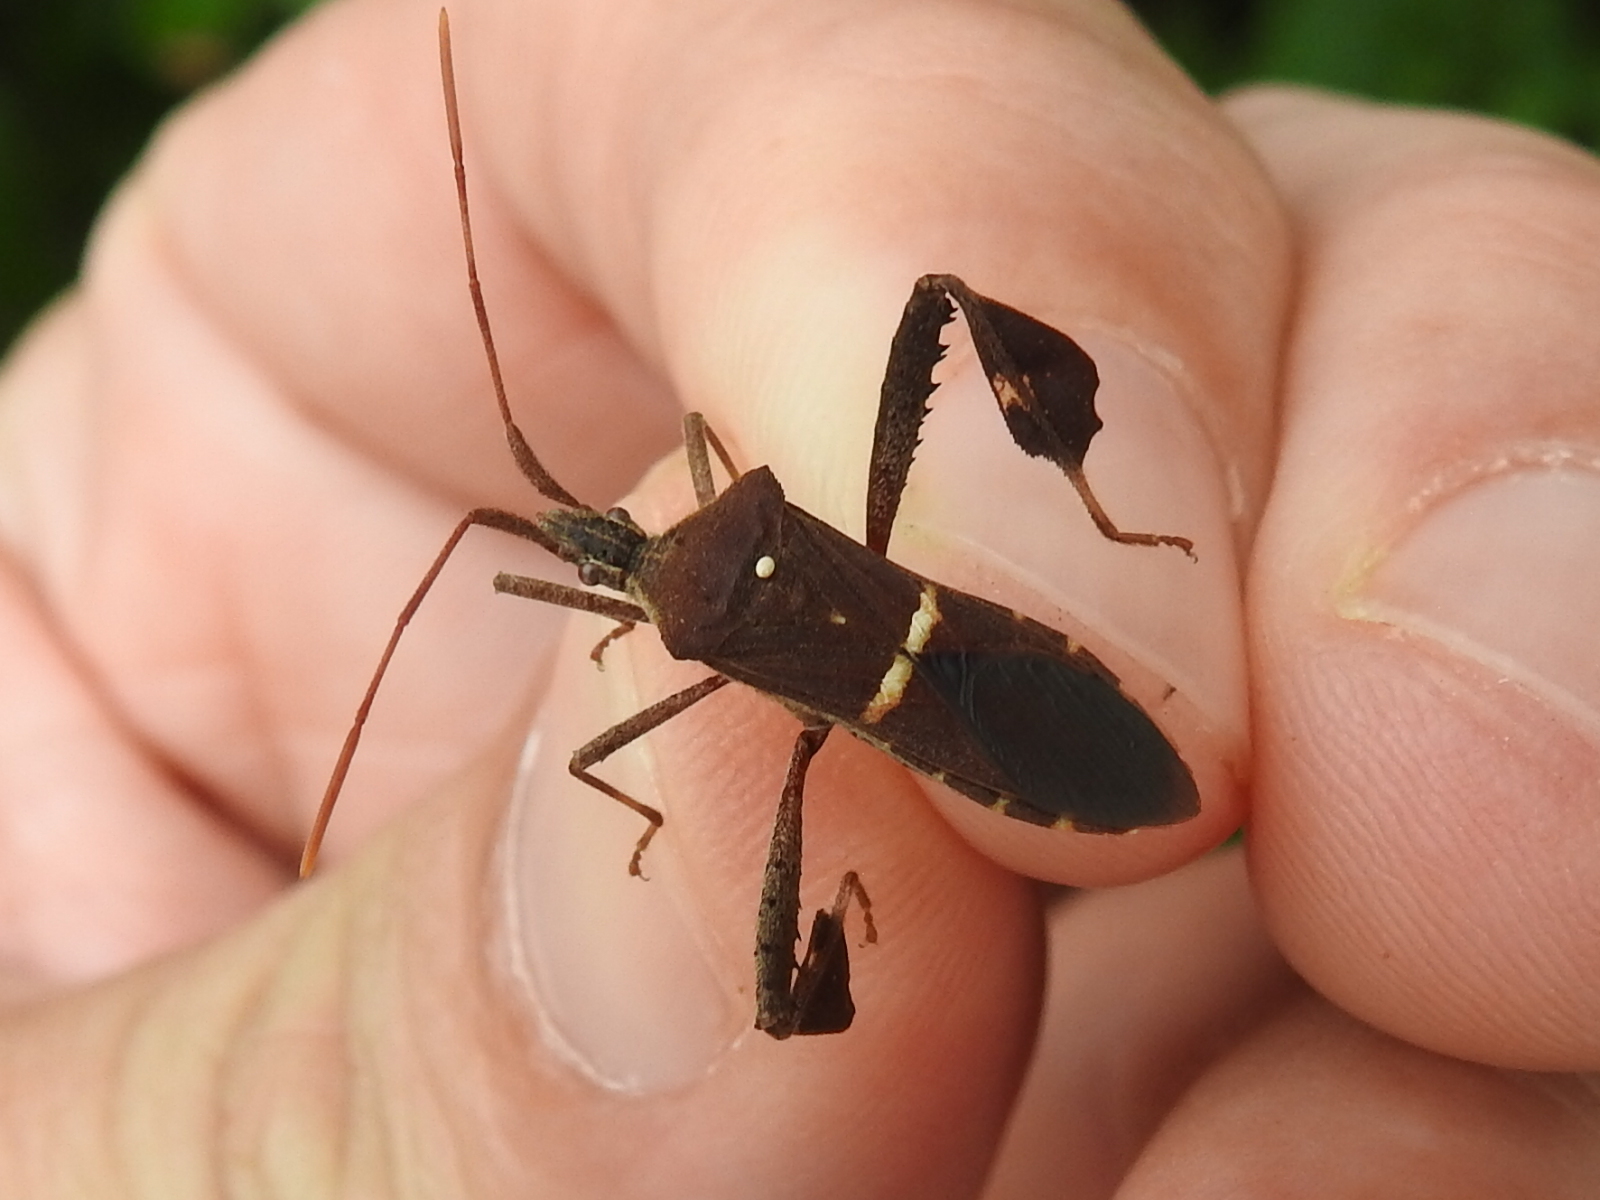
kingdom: Animalia
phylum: Arthropoda
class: Insecta
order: Hemiptera
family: Coreidae
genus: Leptoglossus
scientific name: Leptoglossus phyllopus
